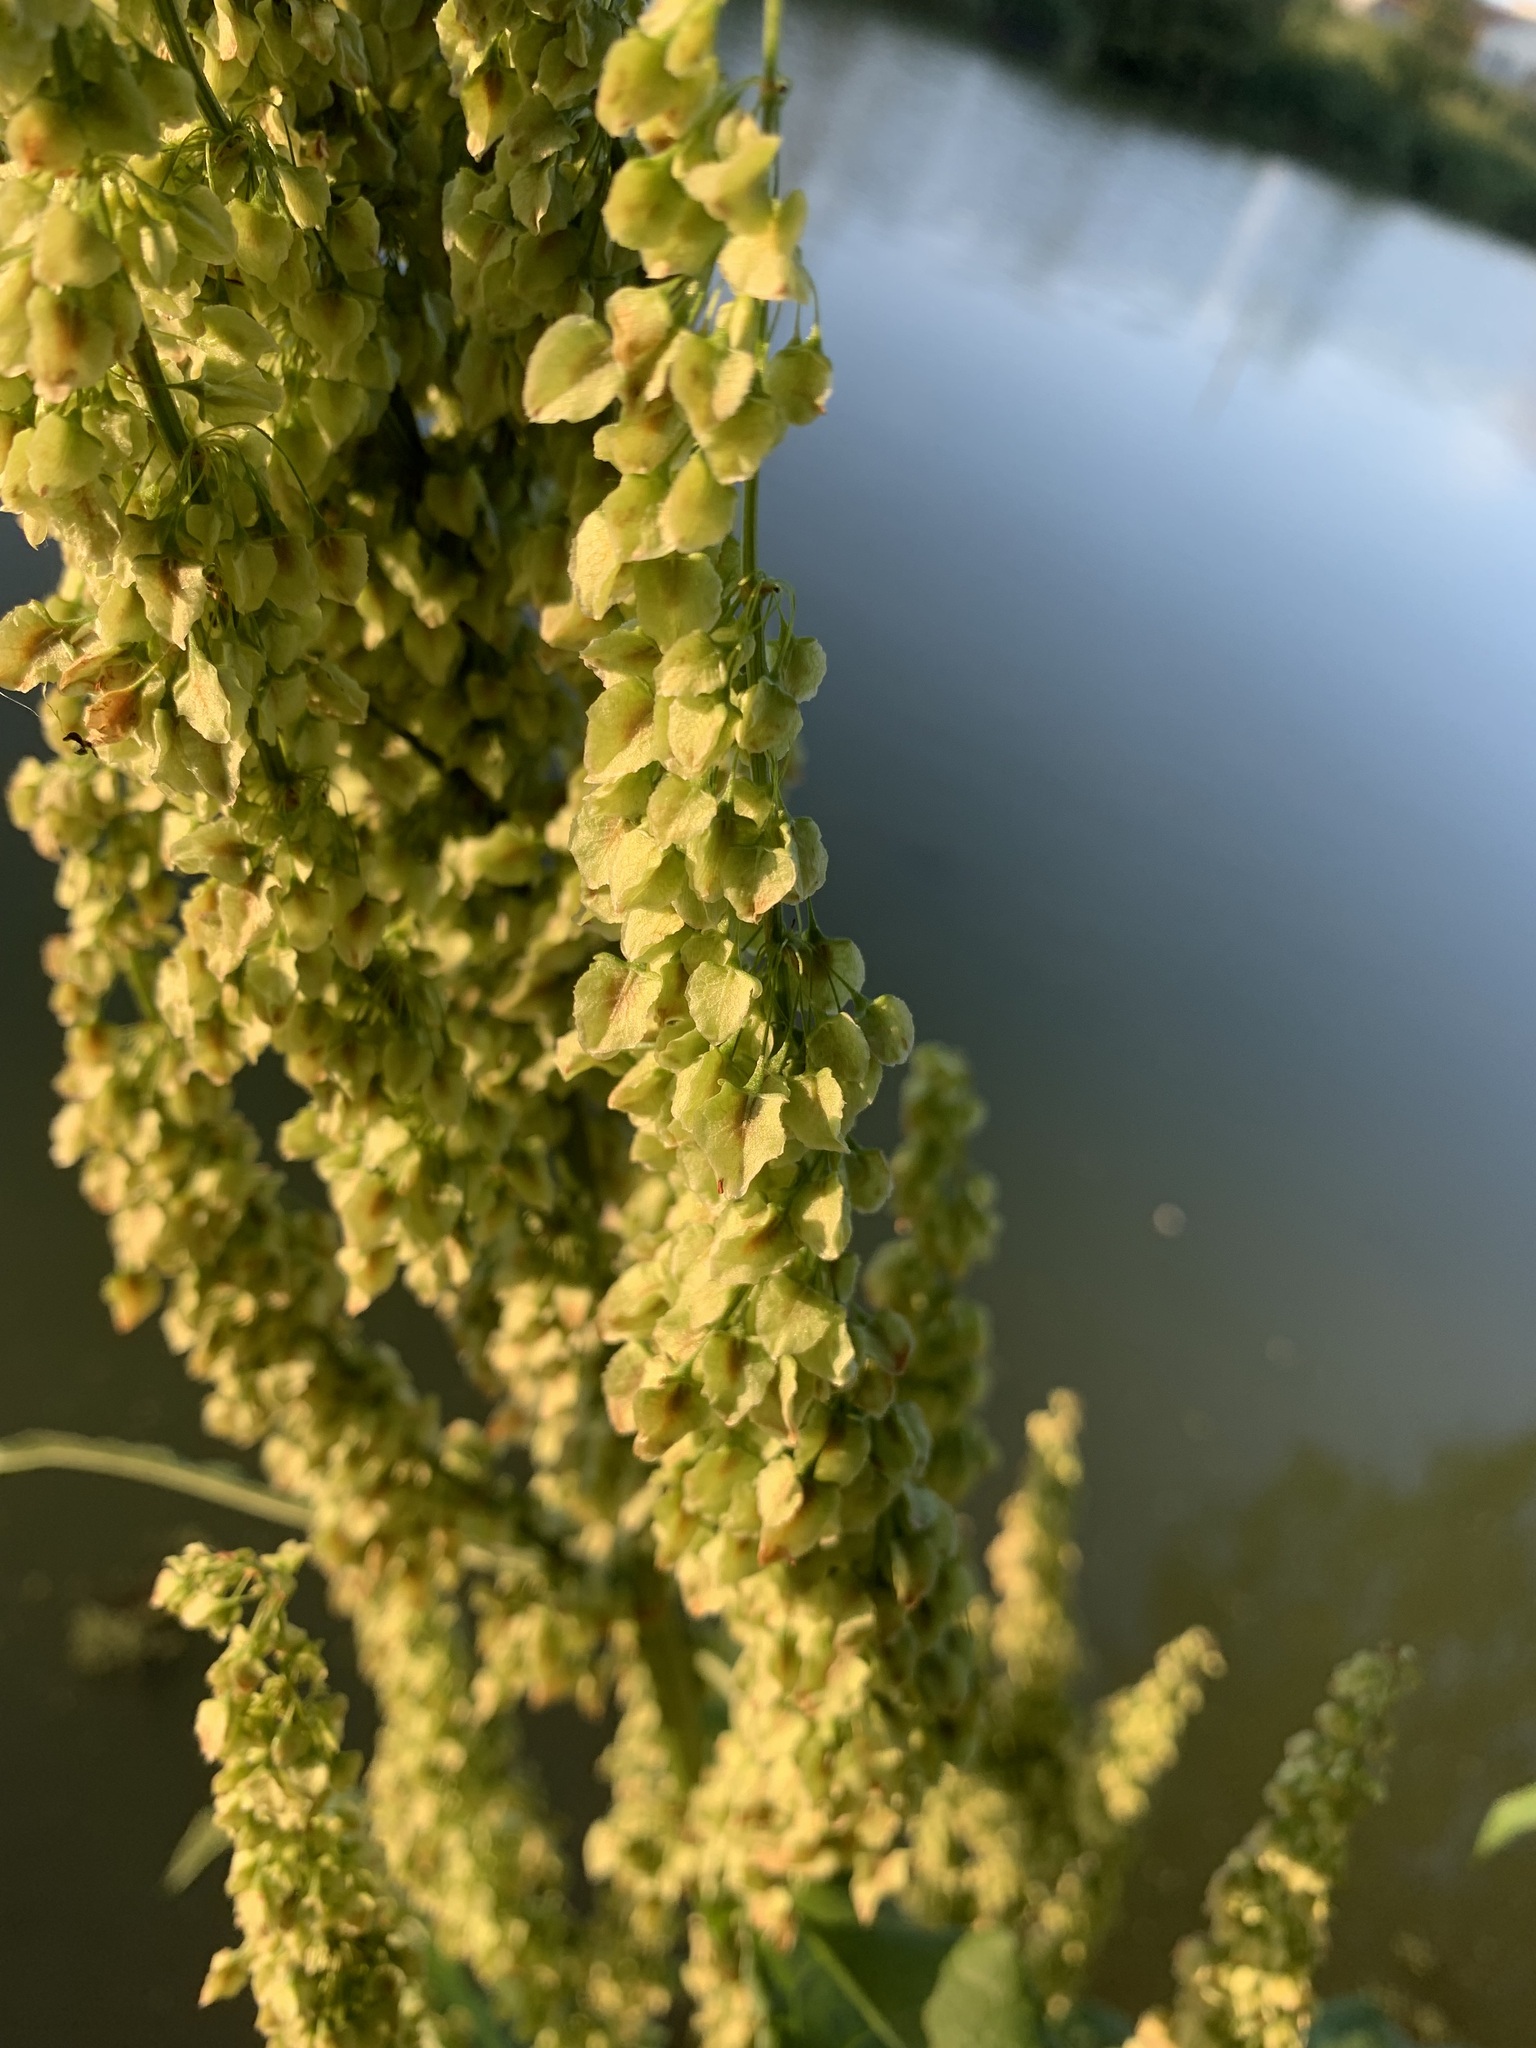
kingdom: Plantae
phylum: Tracheophyta
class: Magnoliopsida
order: Caryophyllales
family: Polygonaceae
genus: Rumex
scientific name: Rumex aquaticus
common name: Scottish dock
